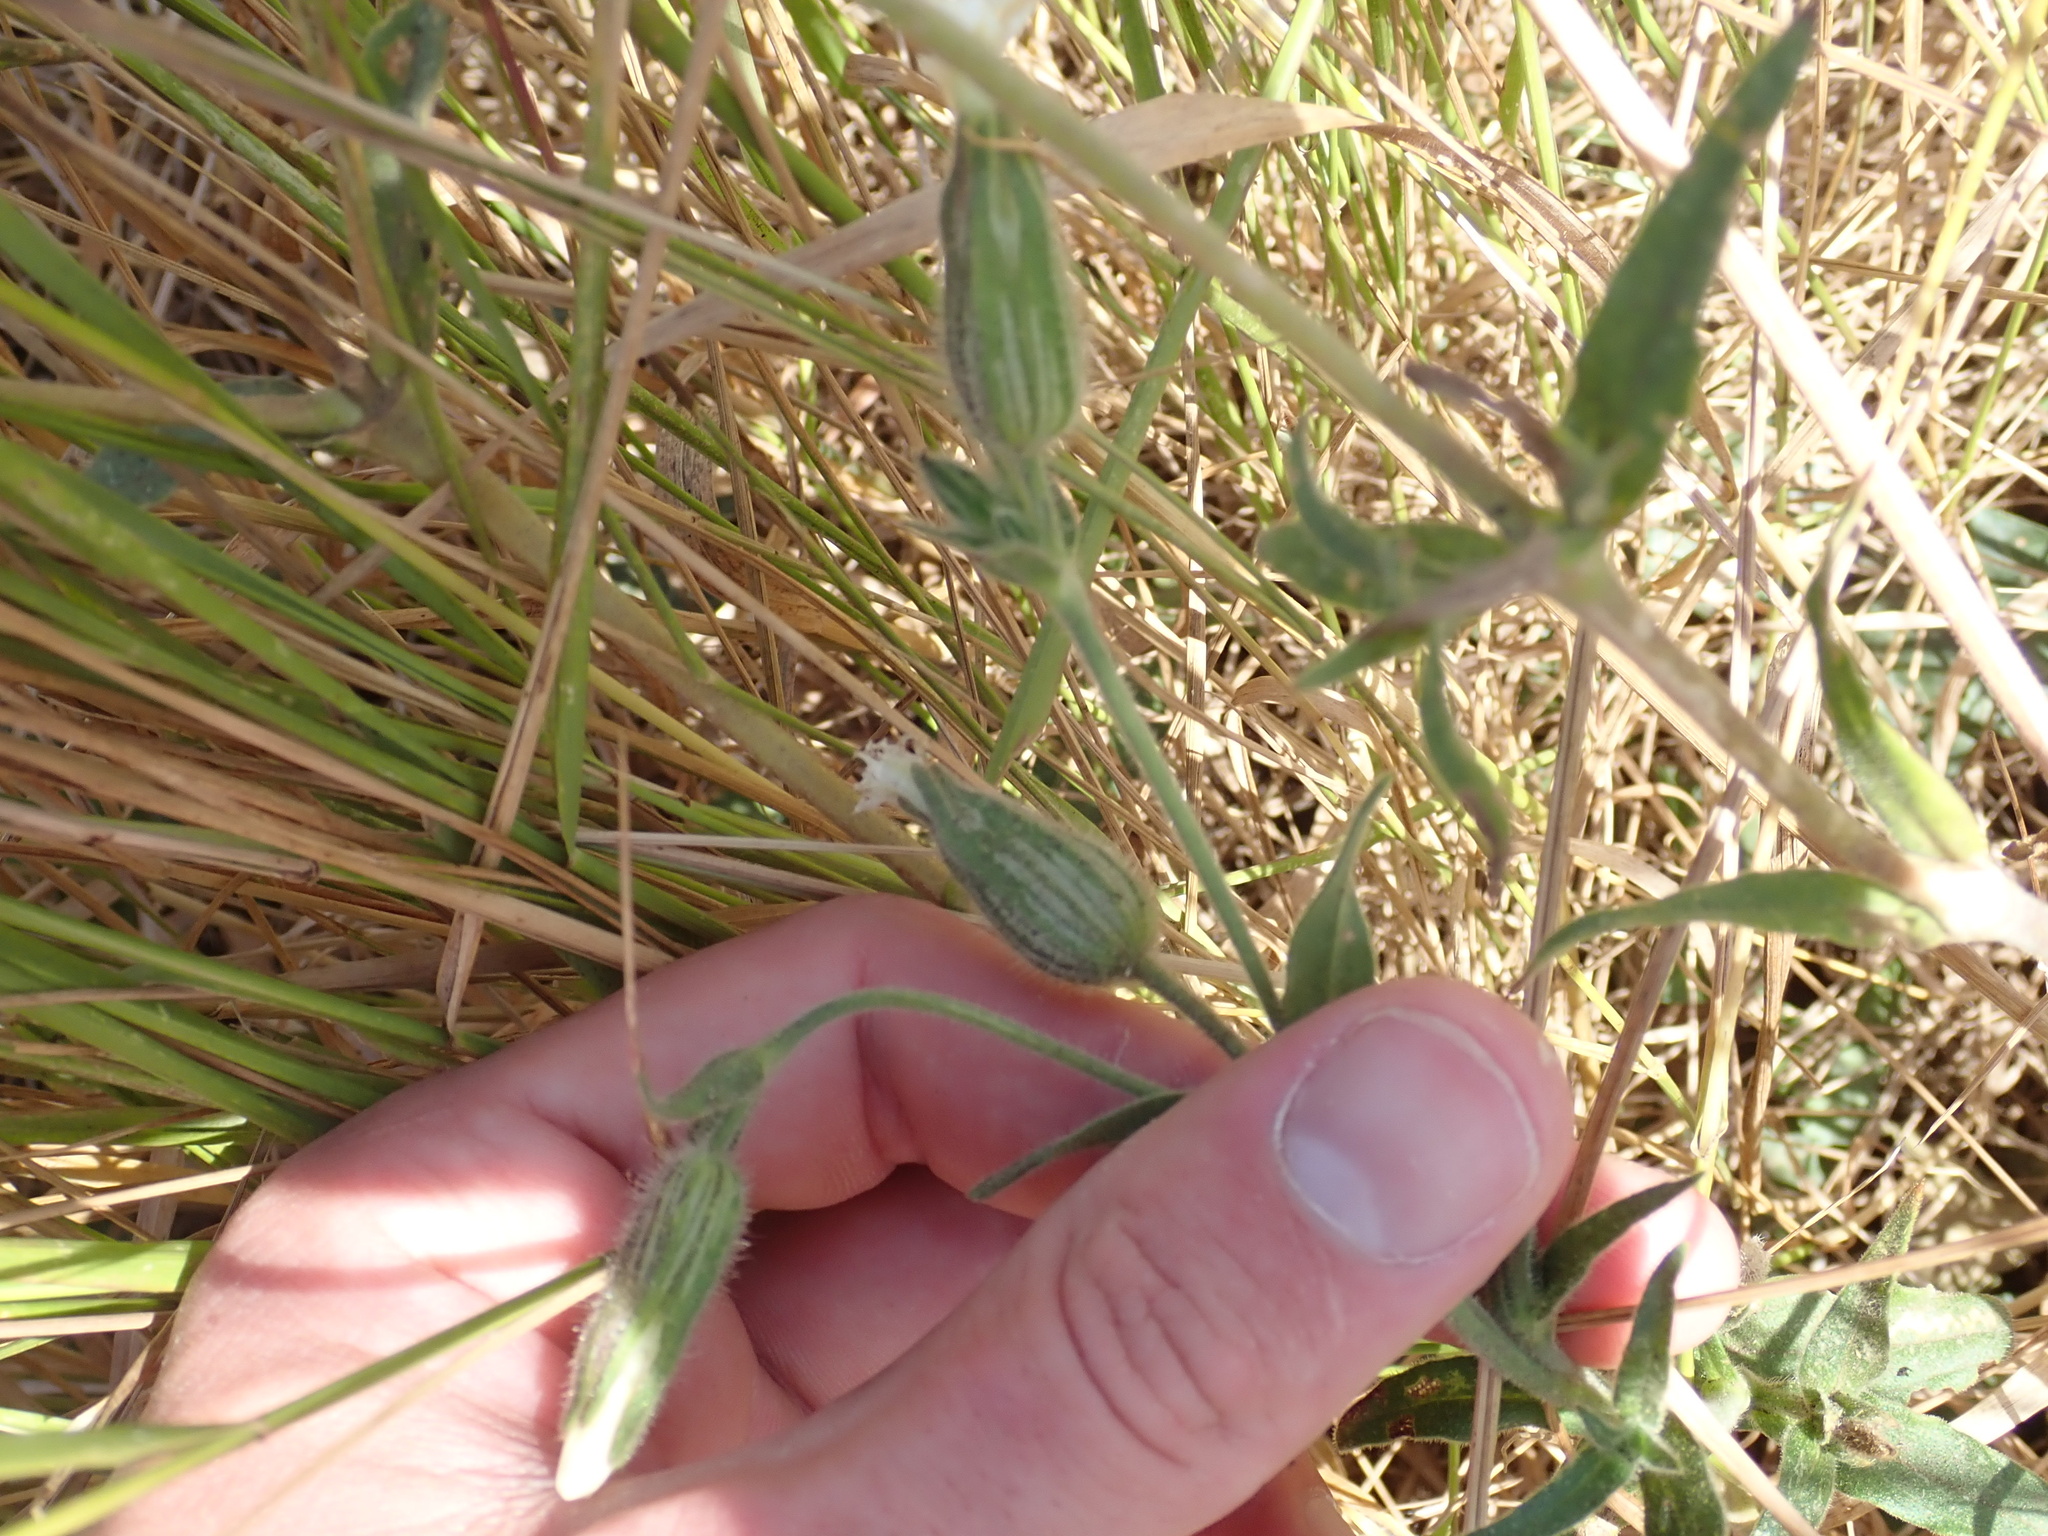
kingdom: Plantae
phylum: Tracheophyta
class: Magnoliopsida
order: Caryophyllales
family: Caryophyllaceae
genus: Silene
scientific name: Silene latifolia
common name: White campion
